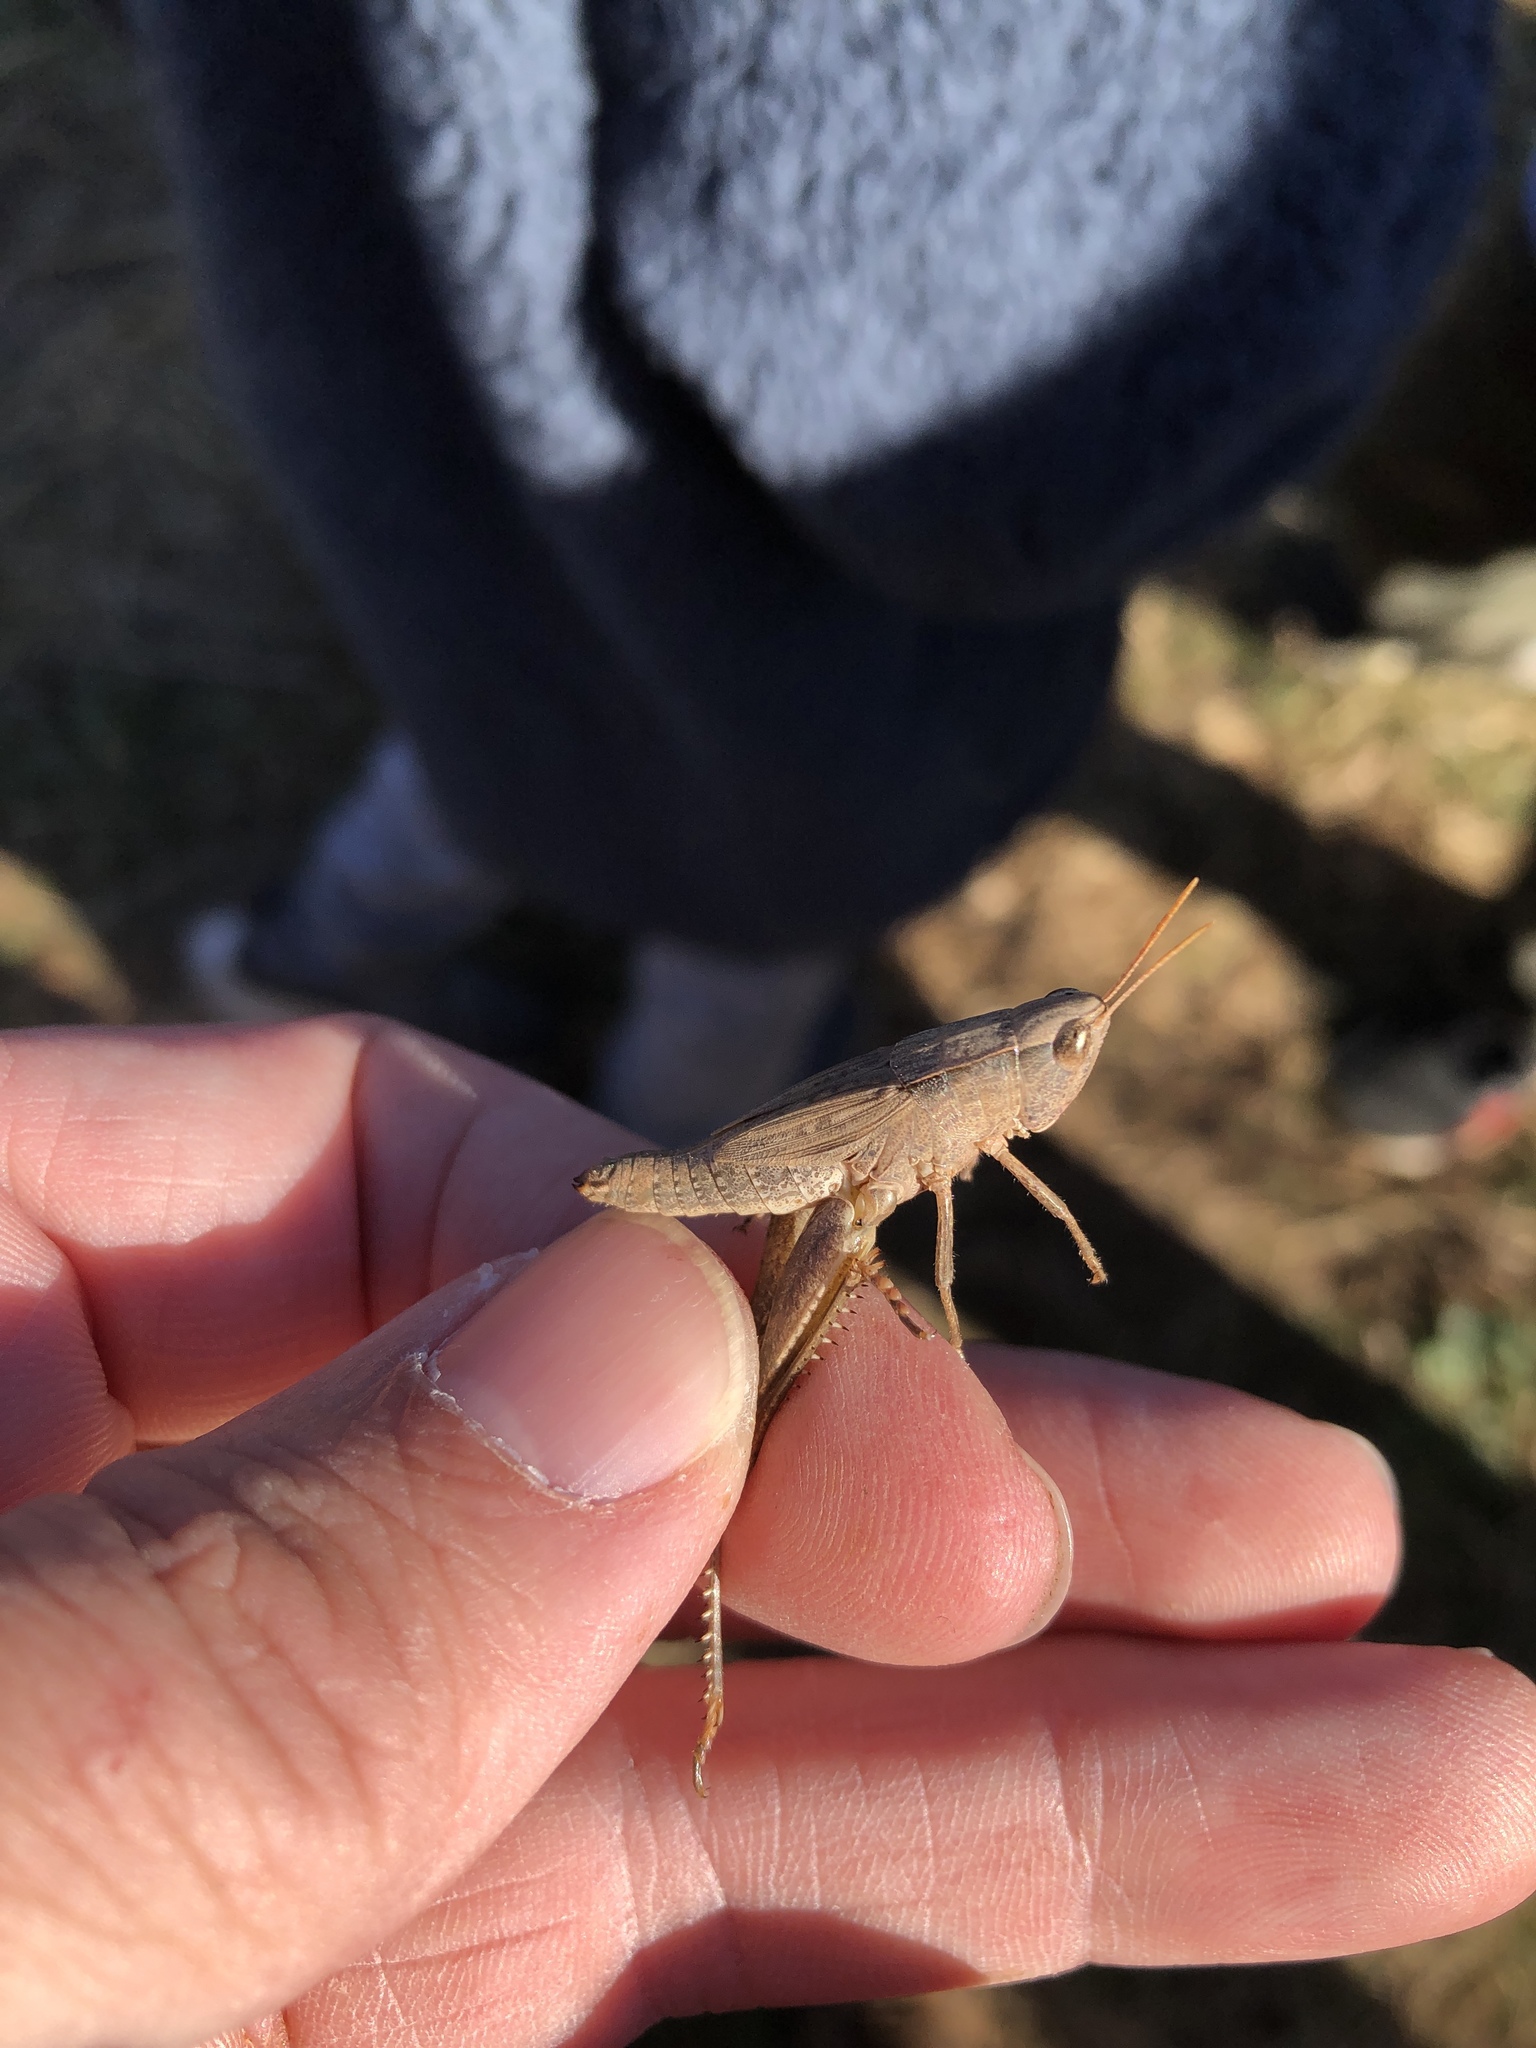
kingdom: Animalia
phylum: Arthropoda
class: Insecta
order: Orthoptera
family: Acrididae
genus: Dichromorpha
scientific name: Dichromorpha viridis
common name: Short-winged green grasshopper
